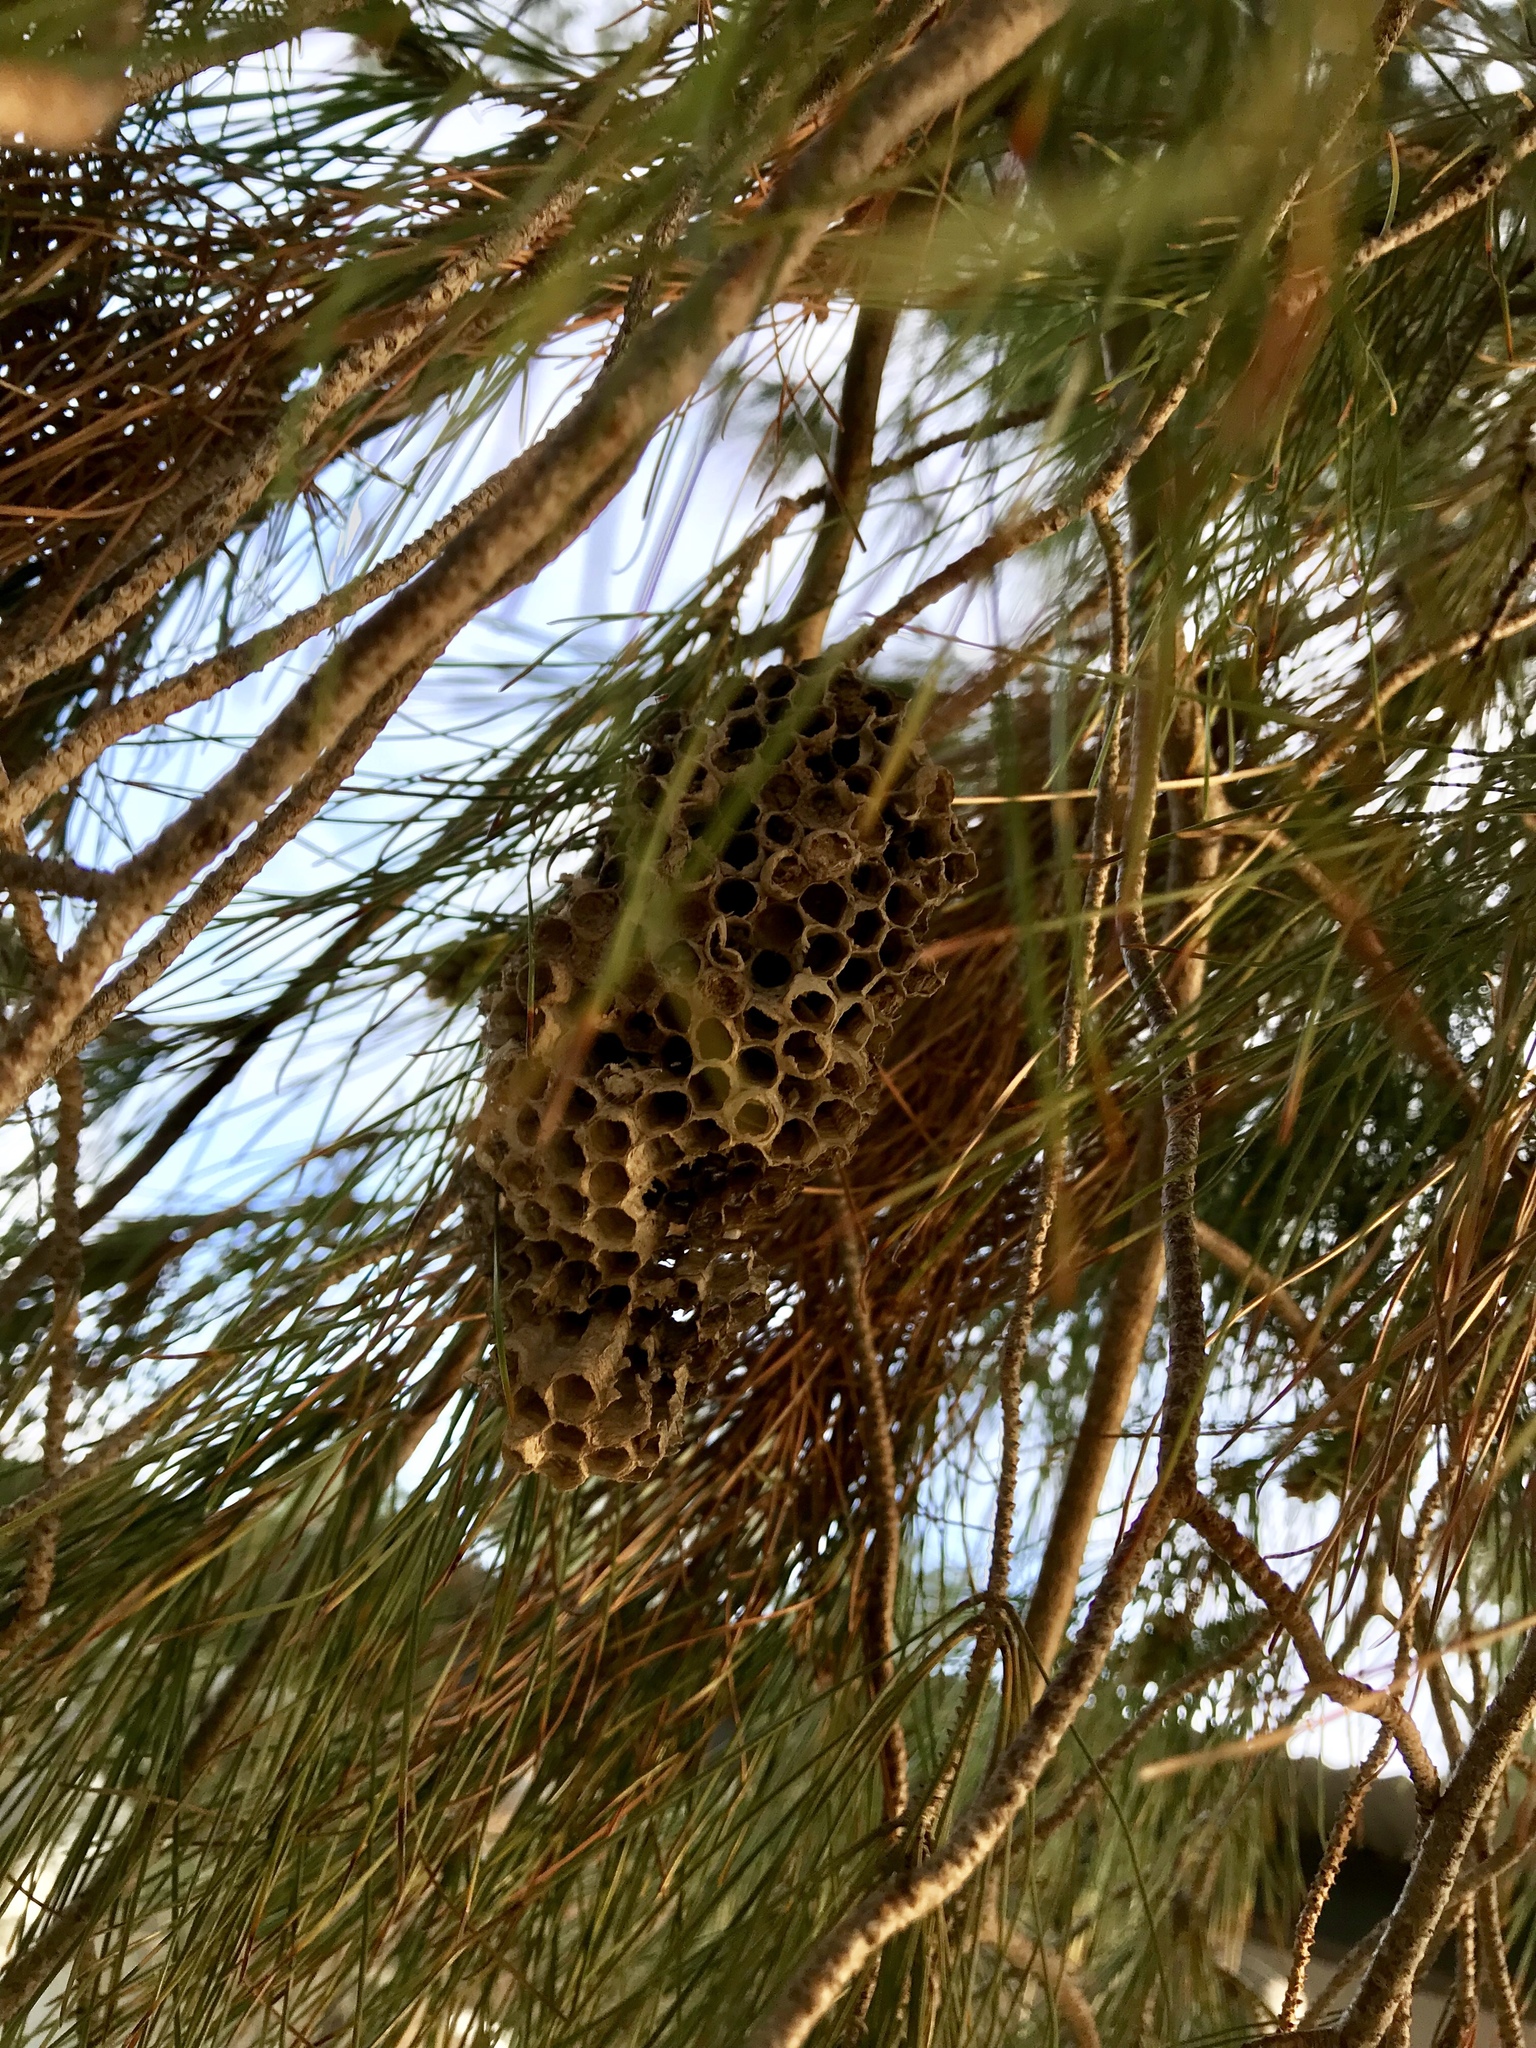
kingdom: Animalia
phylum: Arthropoda
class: Insecta
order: Hymenoptera
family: Vespidae
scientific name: Vespidae
